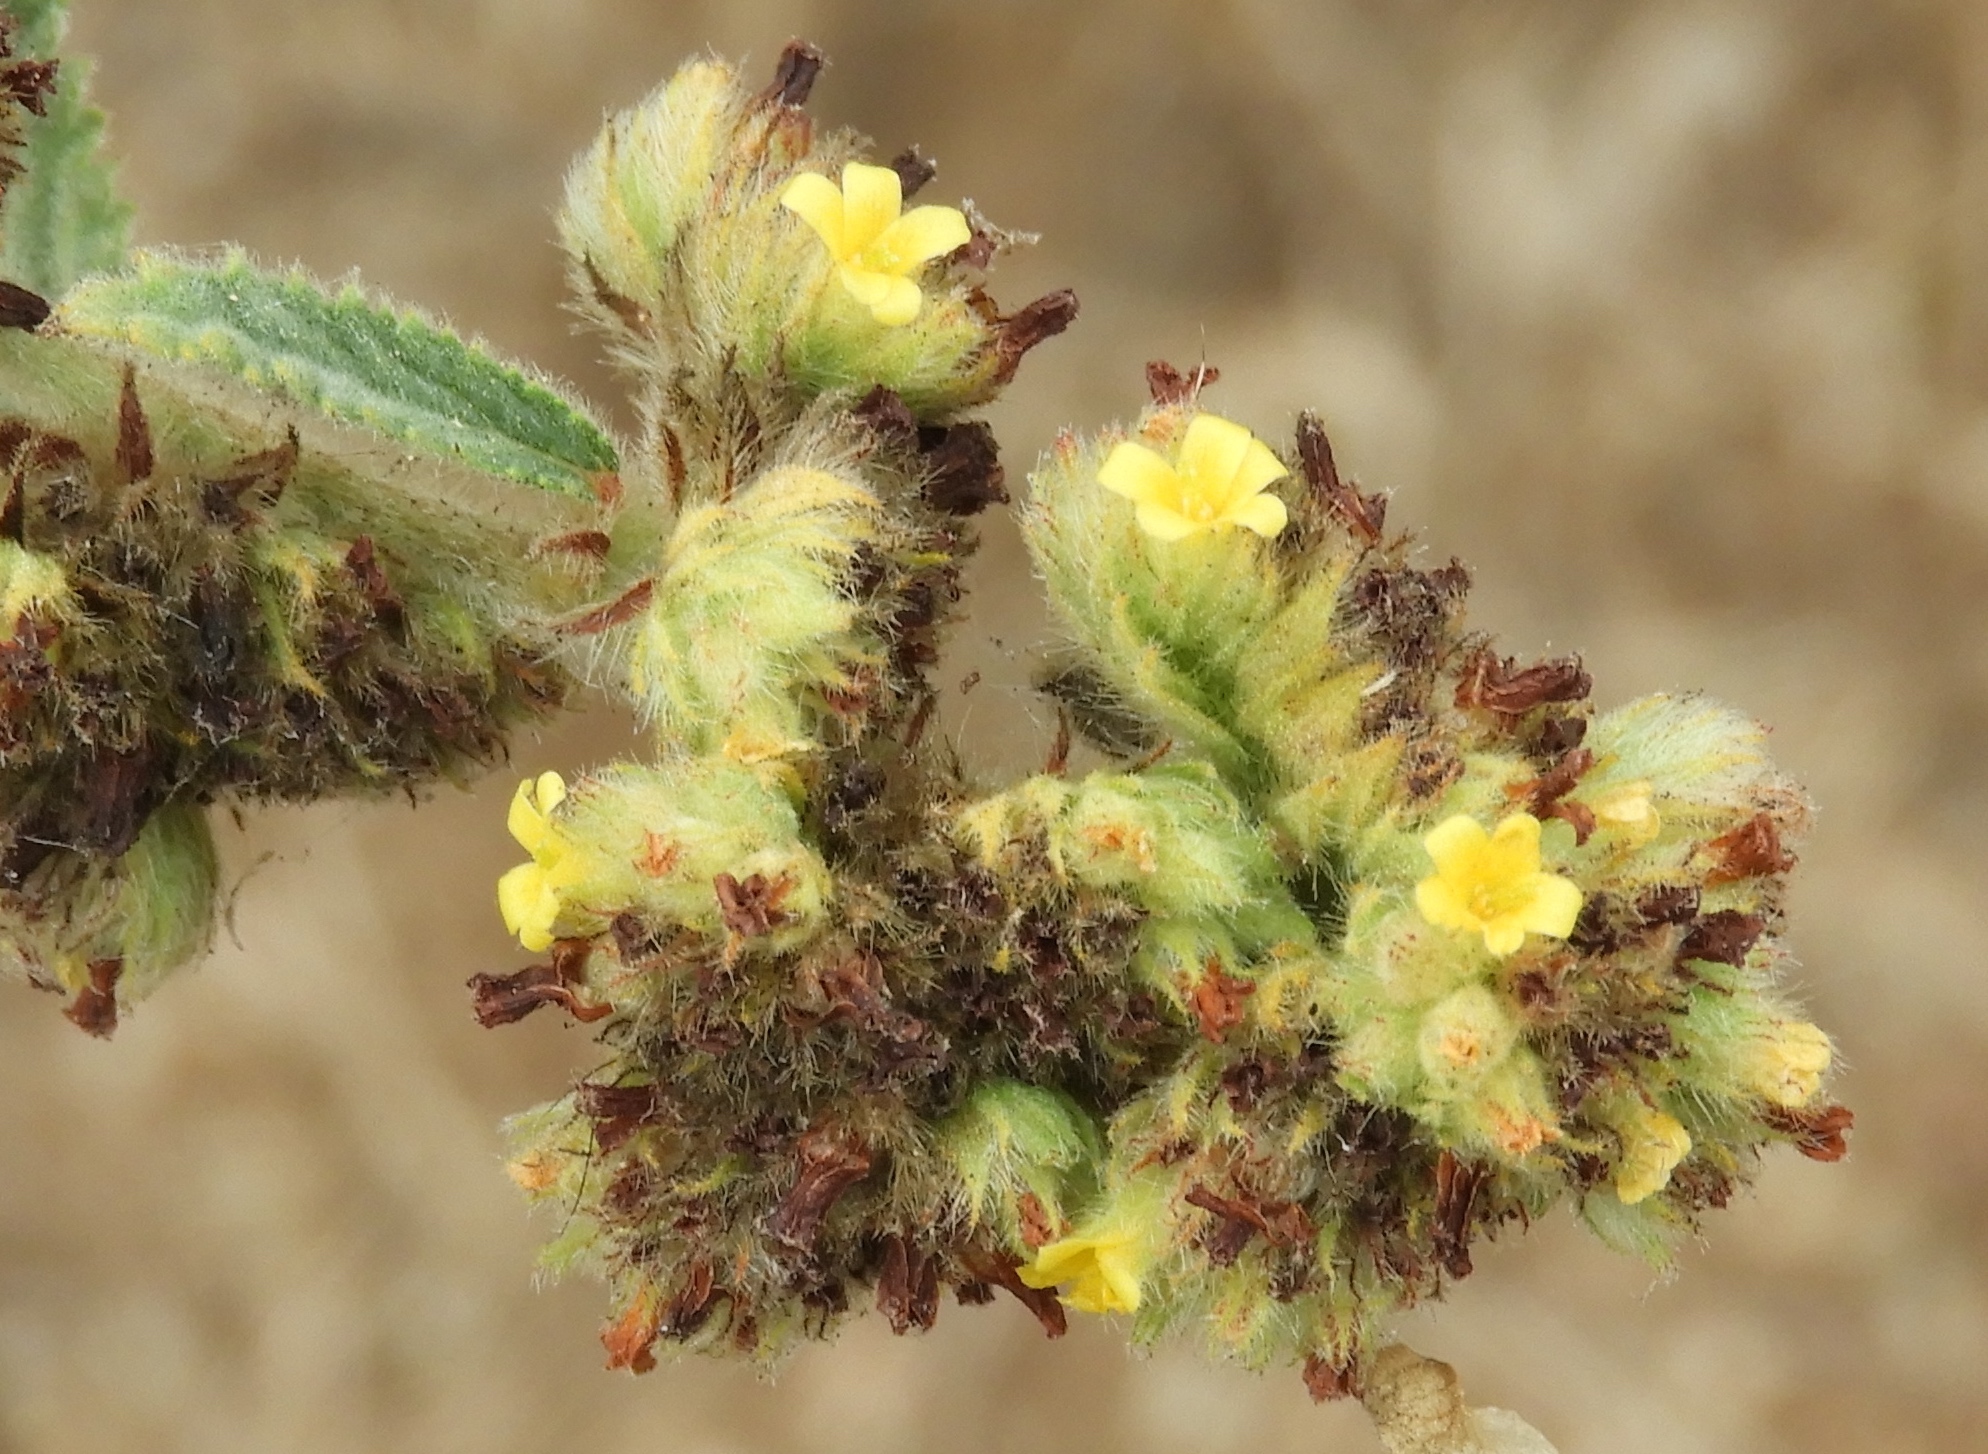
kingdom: Plantae
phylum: Tracheophyta
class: Magnoliopsida
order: Malvales
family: Malvaceae
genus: Waltheria
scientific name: Waltheria indica
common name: Leather-coat
